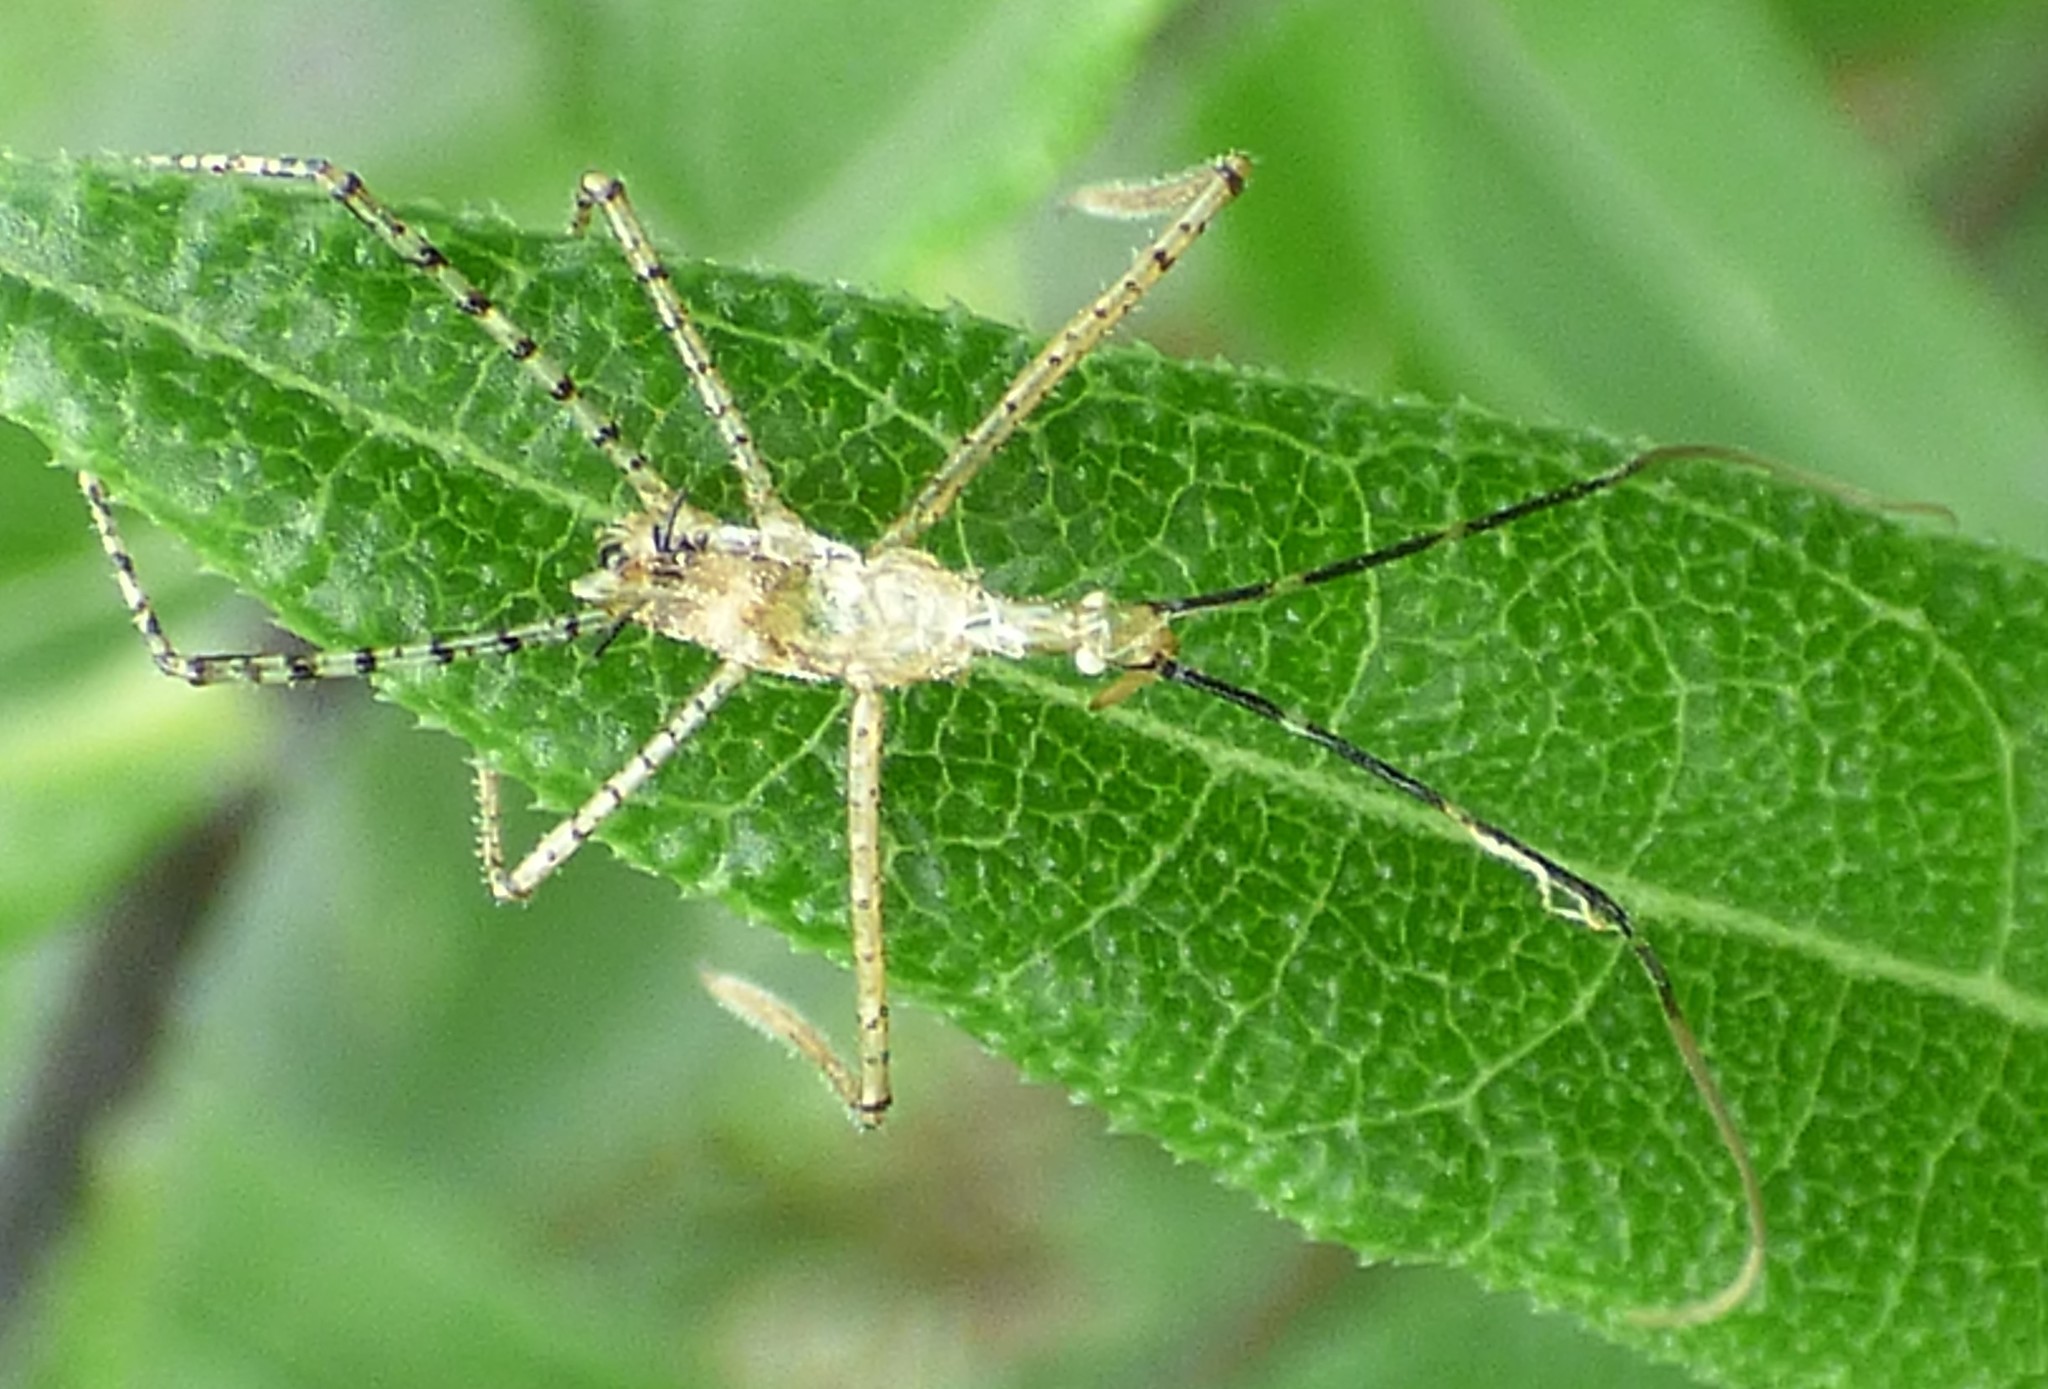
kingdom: Animalia
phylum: Arthropoda
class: Insecta
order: Hemiptera
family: Reduviidae
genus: Zelus
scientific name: Zelus renardii
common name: Assassin bug
